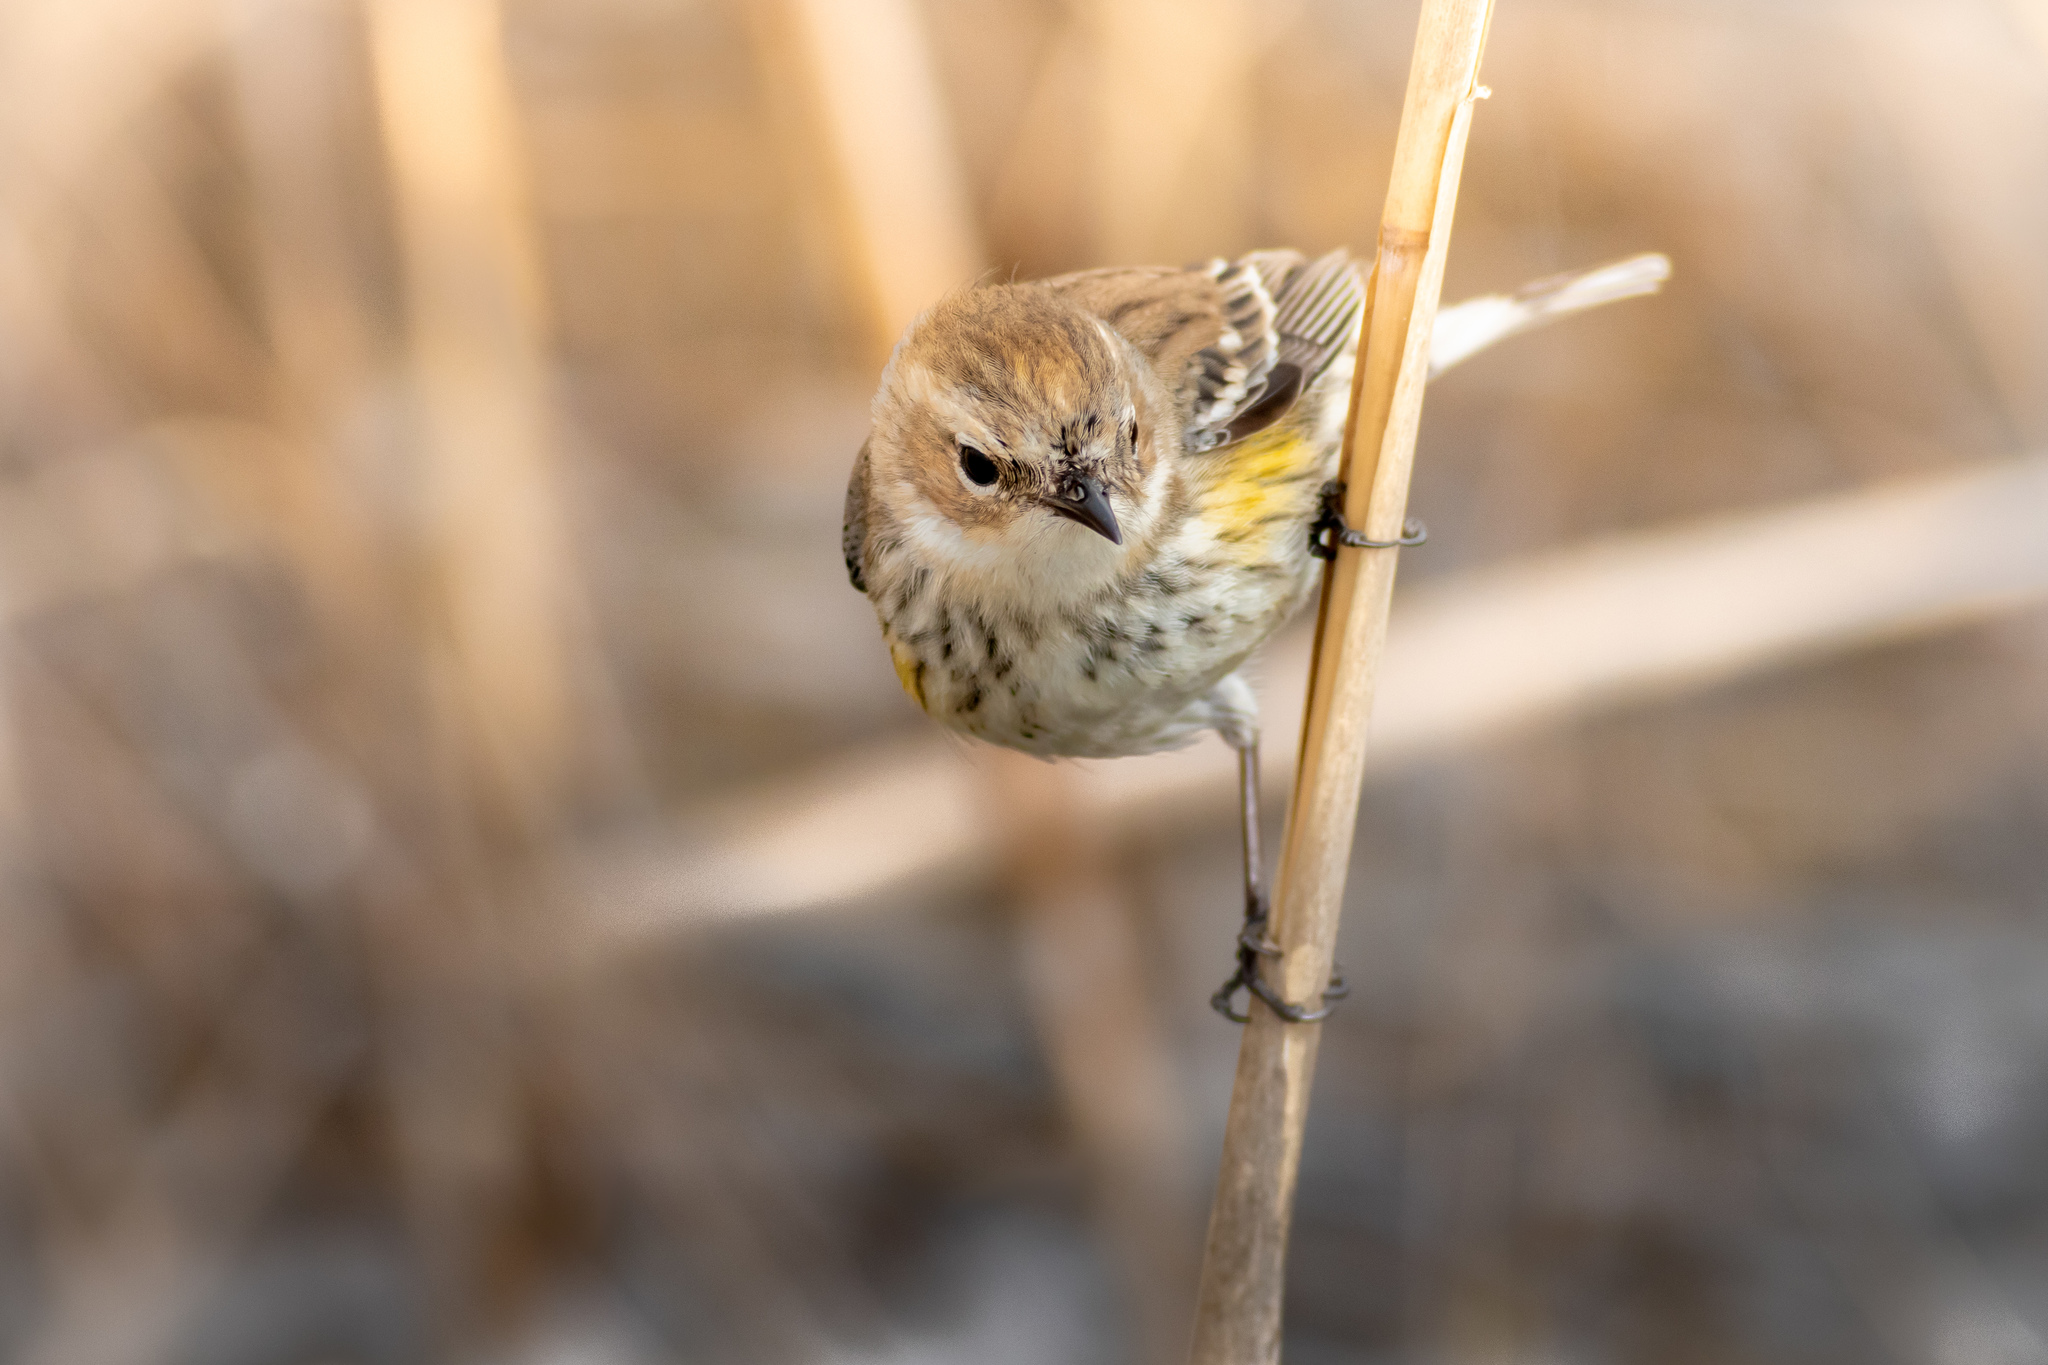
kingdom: Animalia
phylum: Chordata
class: Aves
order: Passeriformes
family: Parulidae
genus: Setophaga
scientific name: Setophaga coronata
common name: Myrtle warbler
